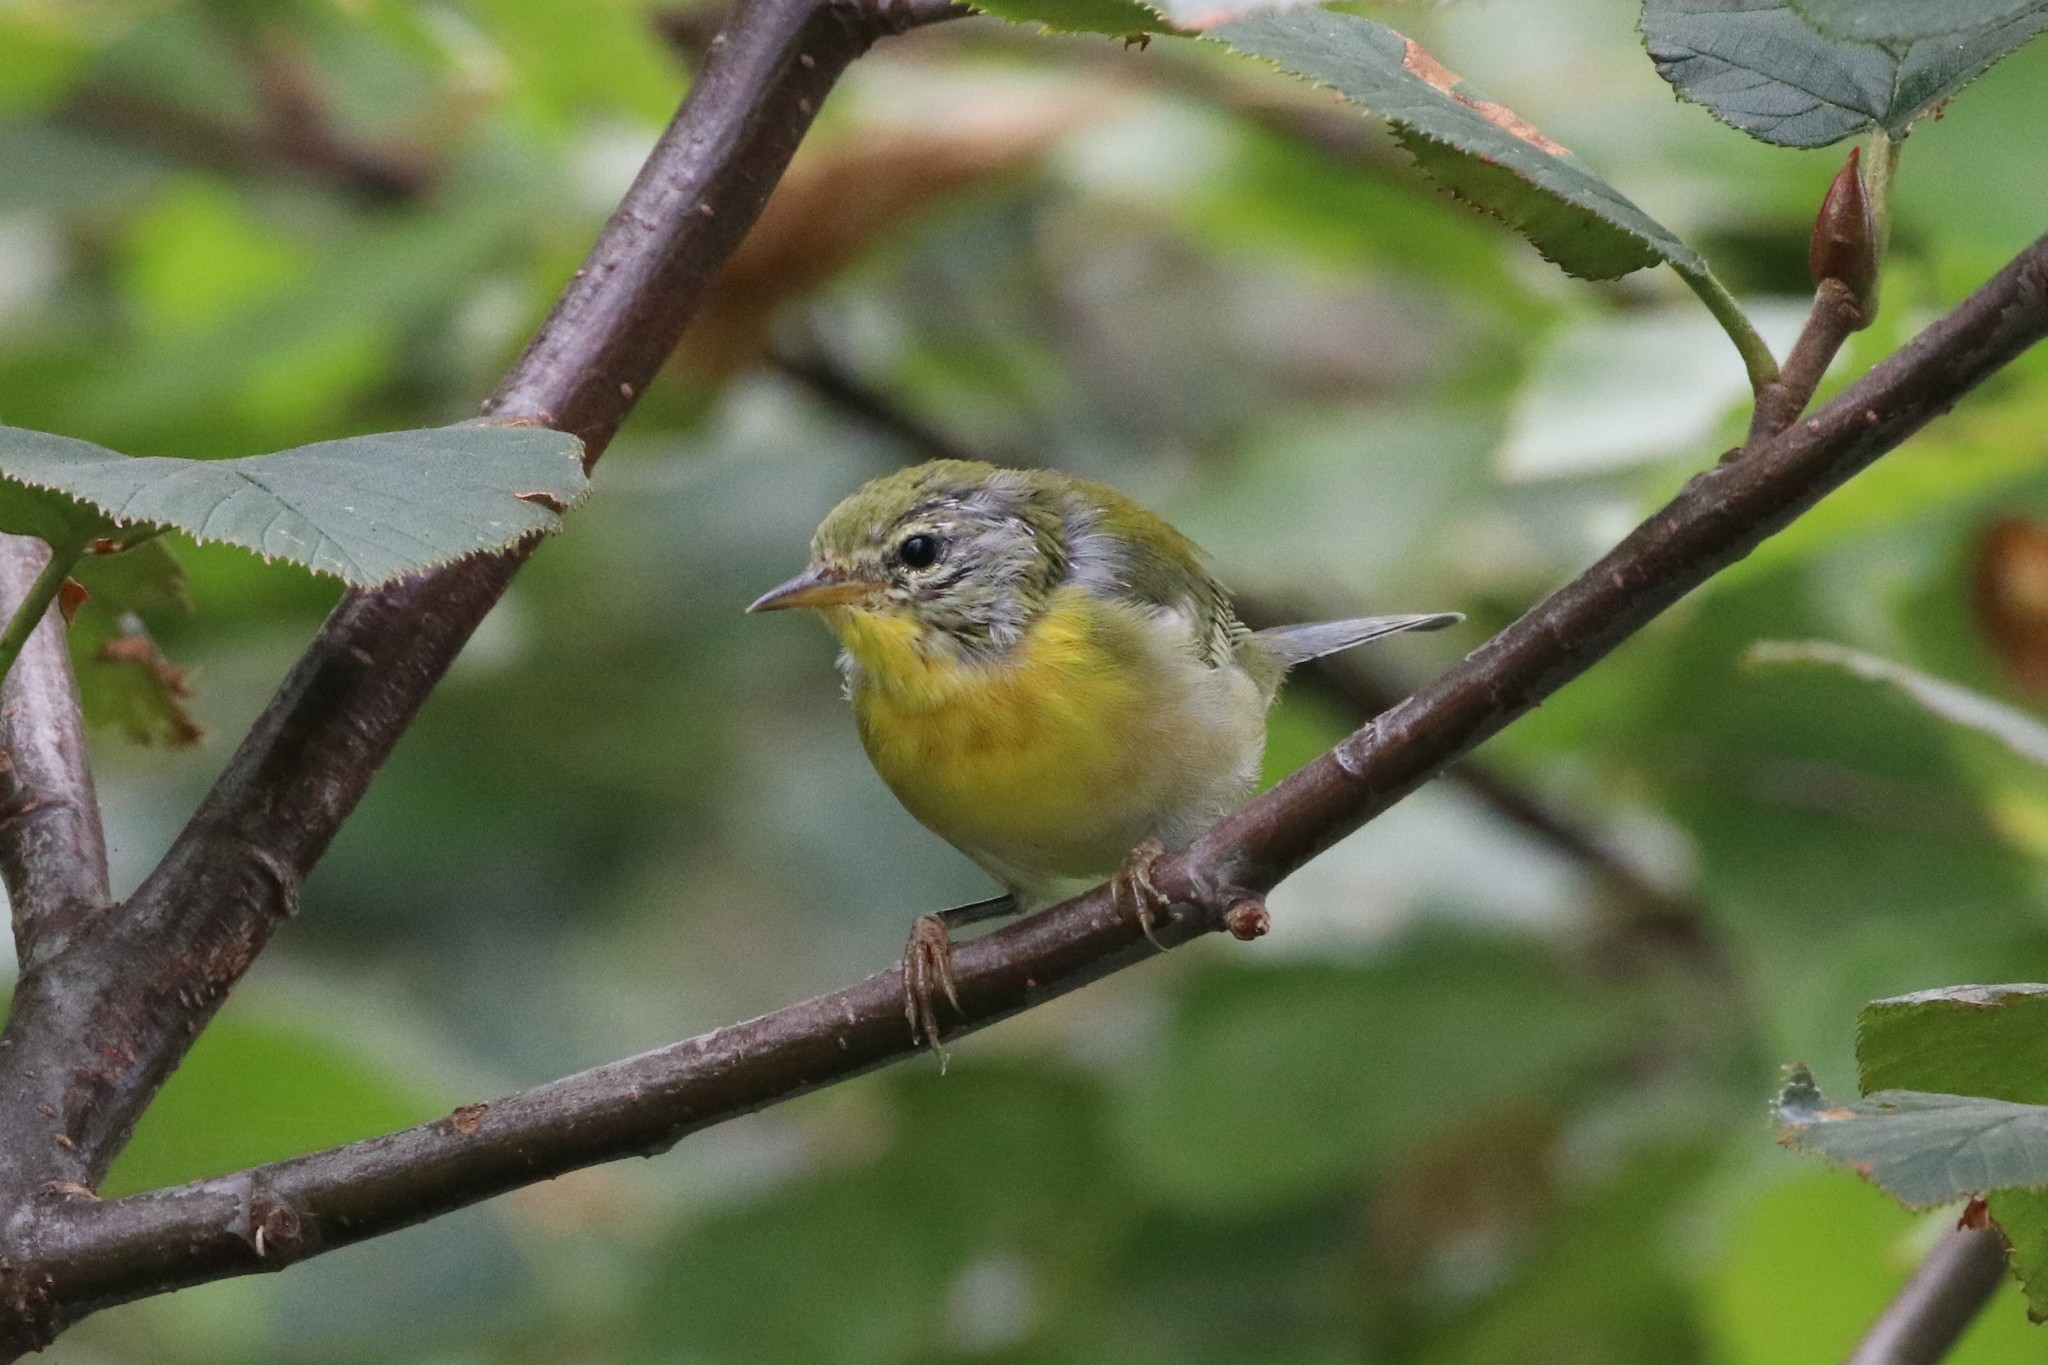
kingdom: Animalia
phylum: Chordata
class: Aves
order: Passeriformes
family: Parulidae
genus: Setophaga
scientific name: Setophaga americana
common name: Northern parula
